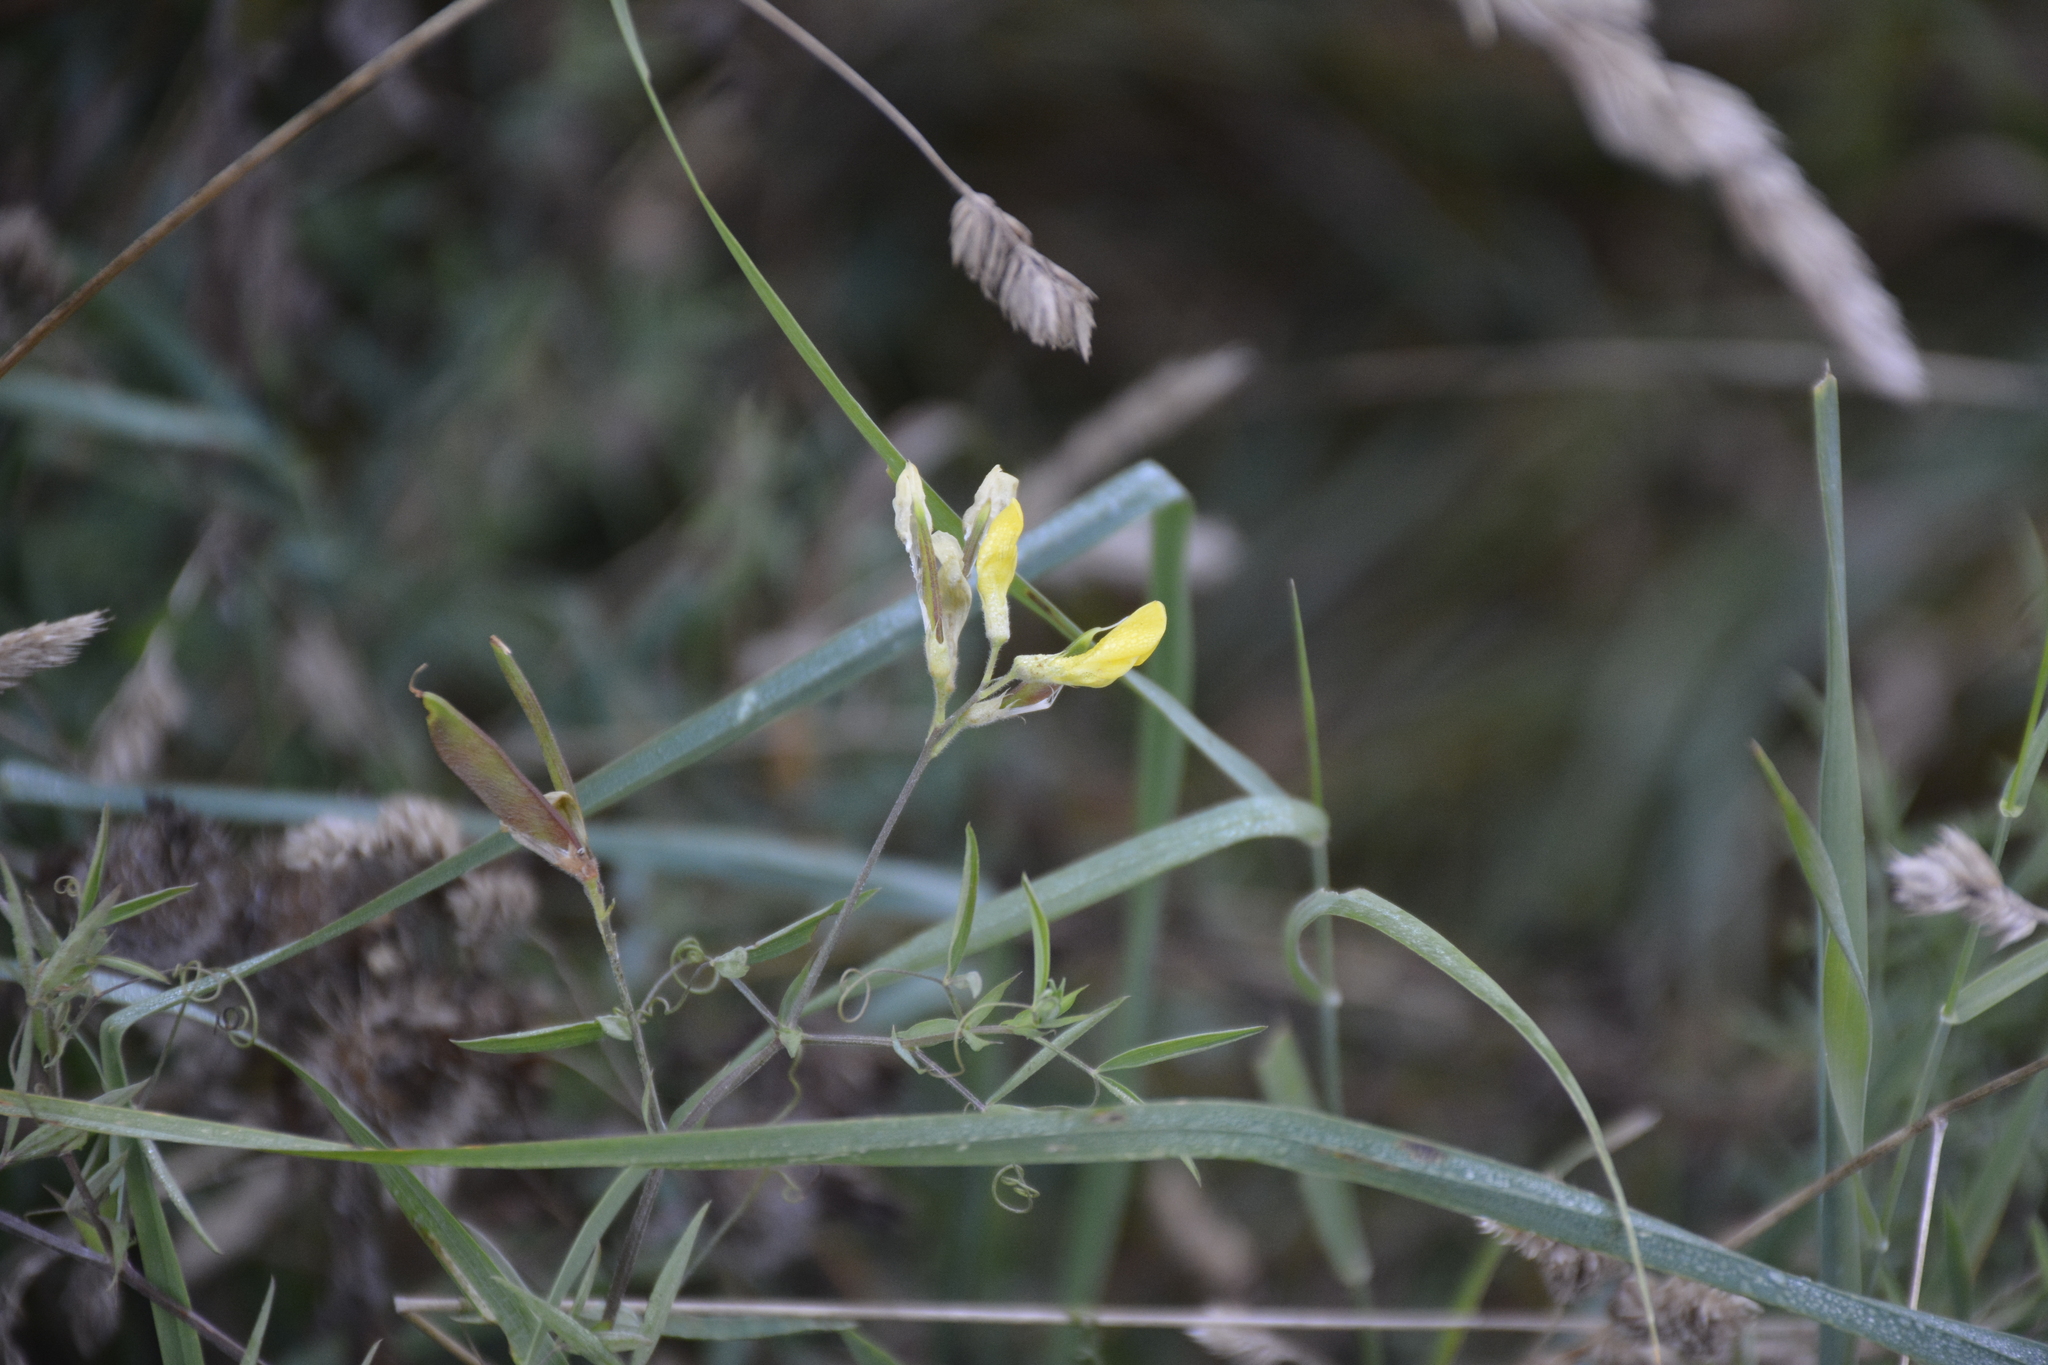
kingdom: Plantae
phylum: Tracheophyta
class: Magnoliopsida
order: Fabales
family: Fabaceae
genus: Lathyrus
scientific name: Lathyrus pratensis
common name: Meadow vetchling
